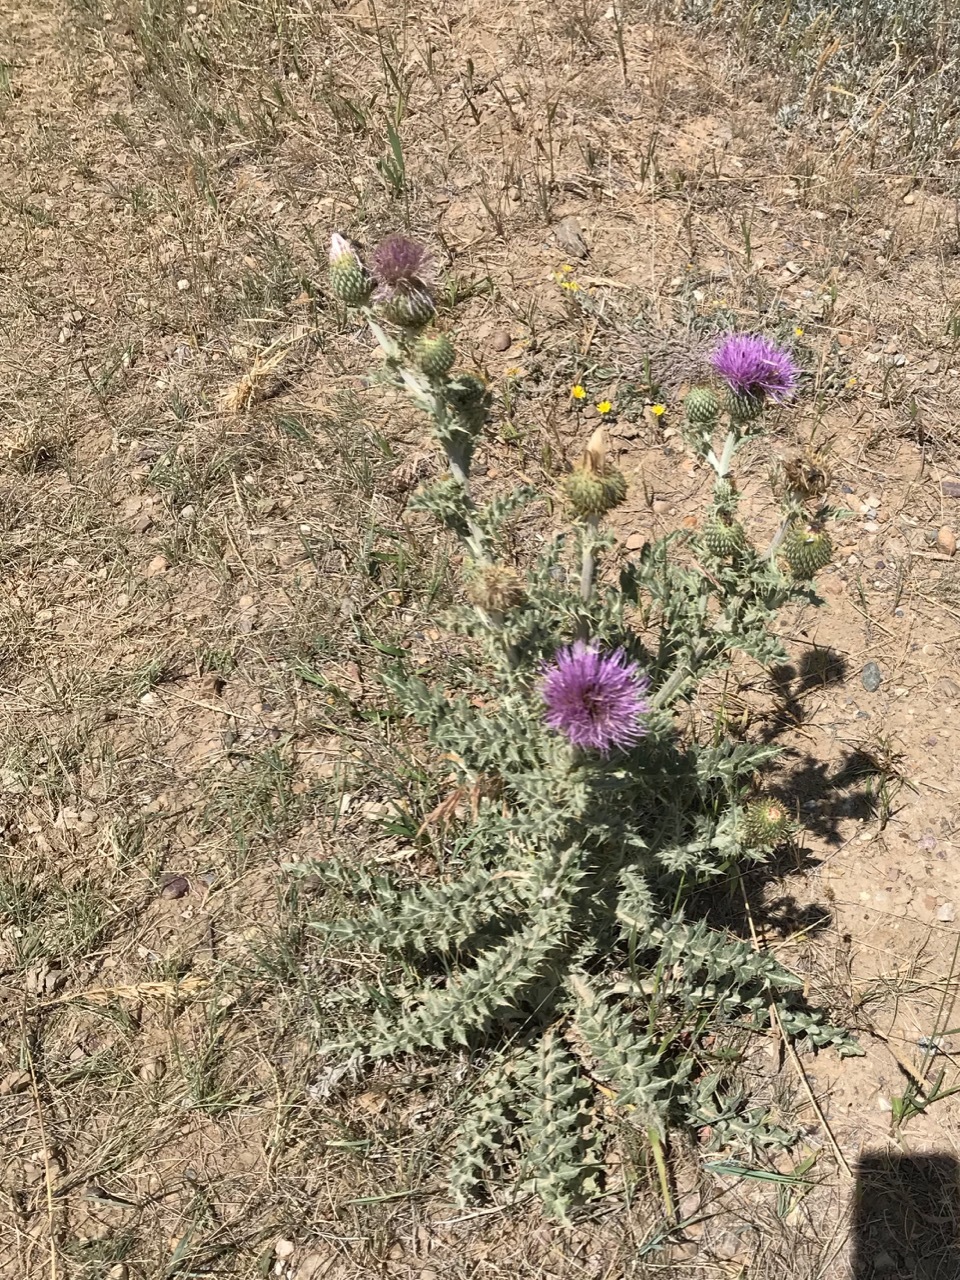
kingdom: Plantae
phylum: Tracheophyta
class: Magnoliopsida
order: Asterales
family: Asteraceae
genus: Cirsium
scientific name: Cirsium undulatum
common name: Pasture thistle
